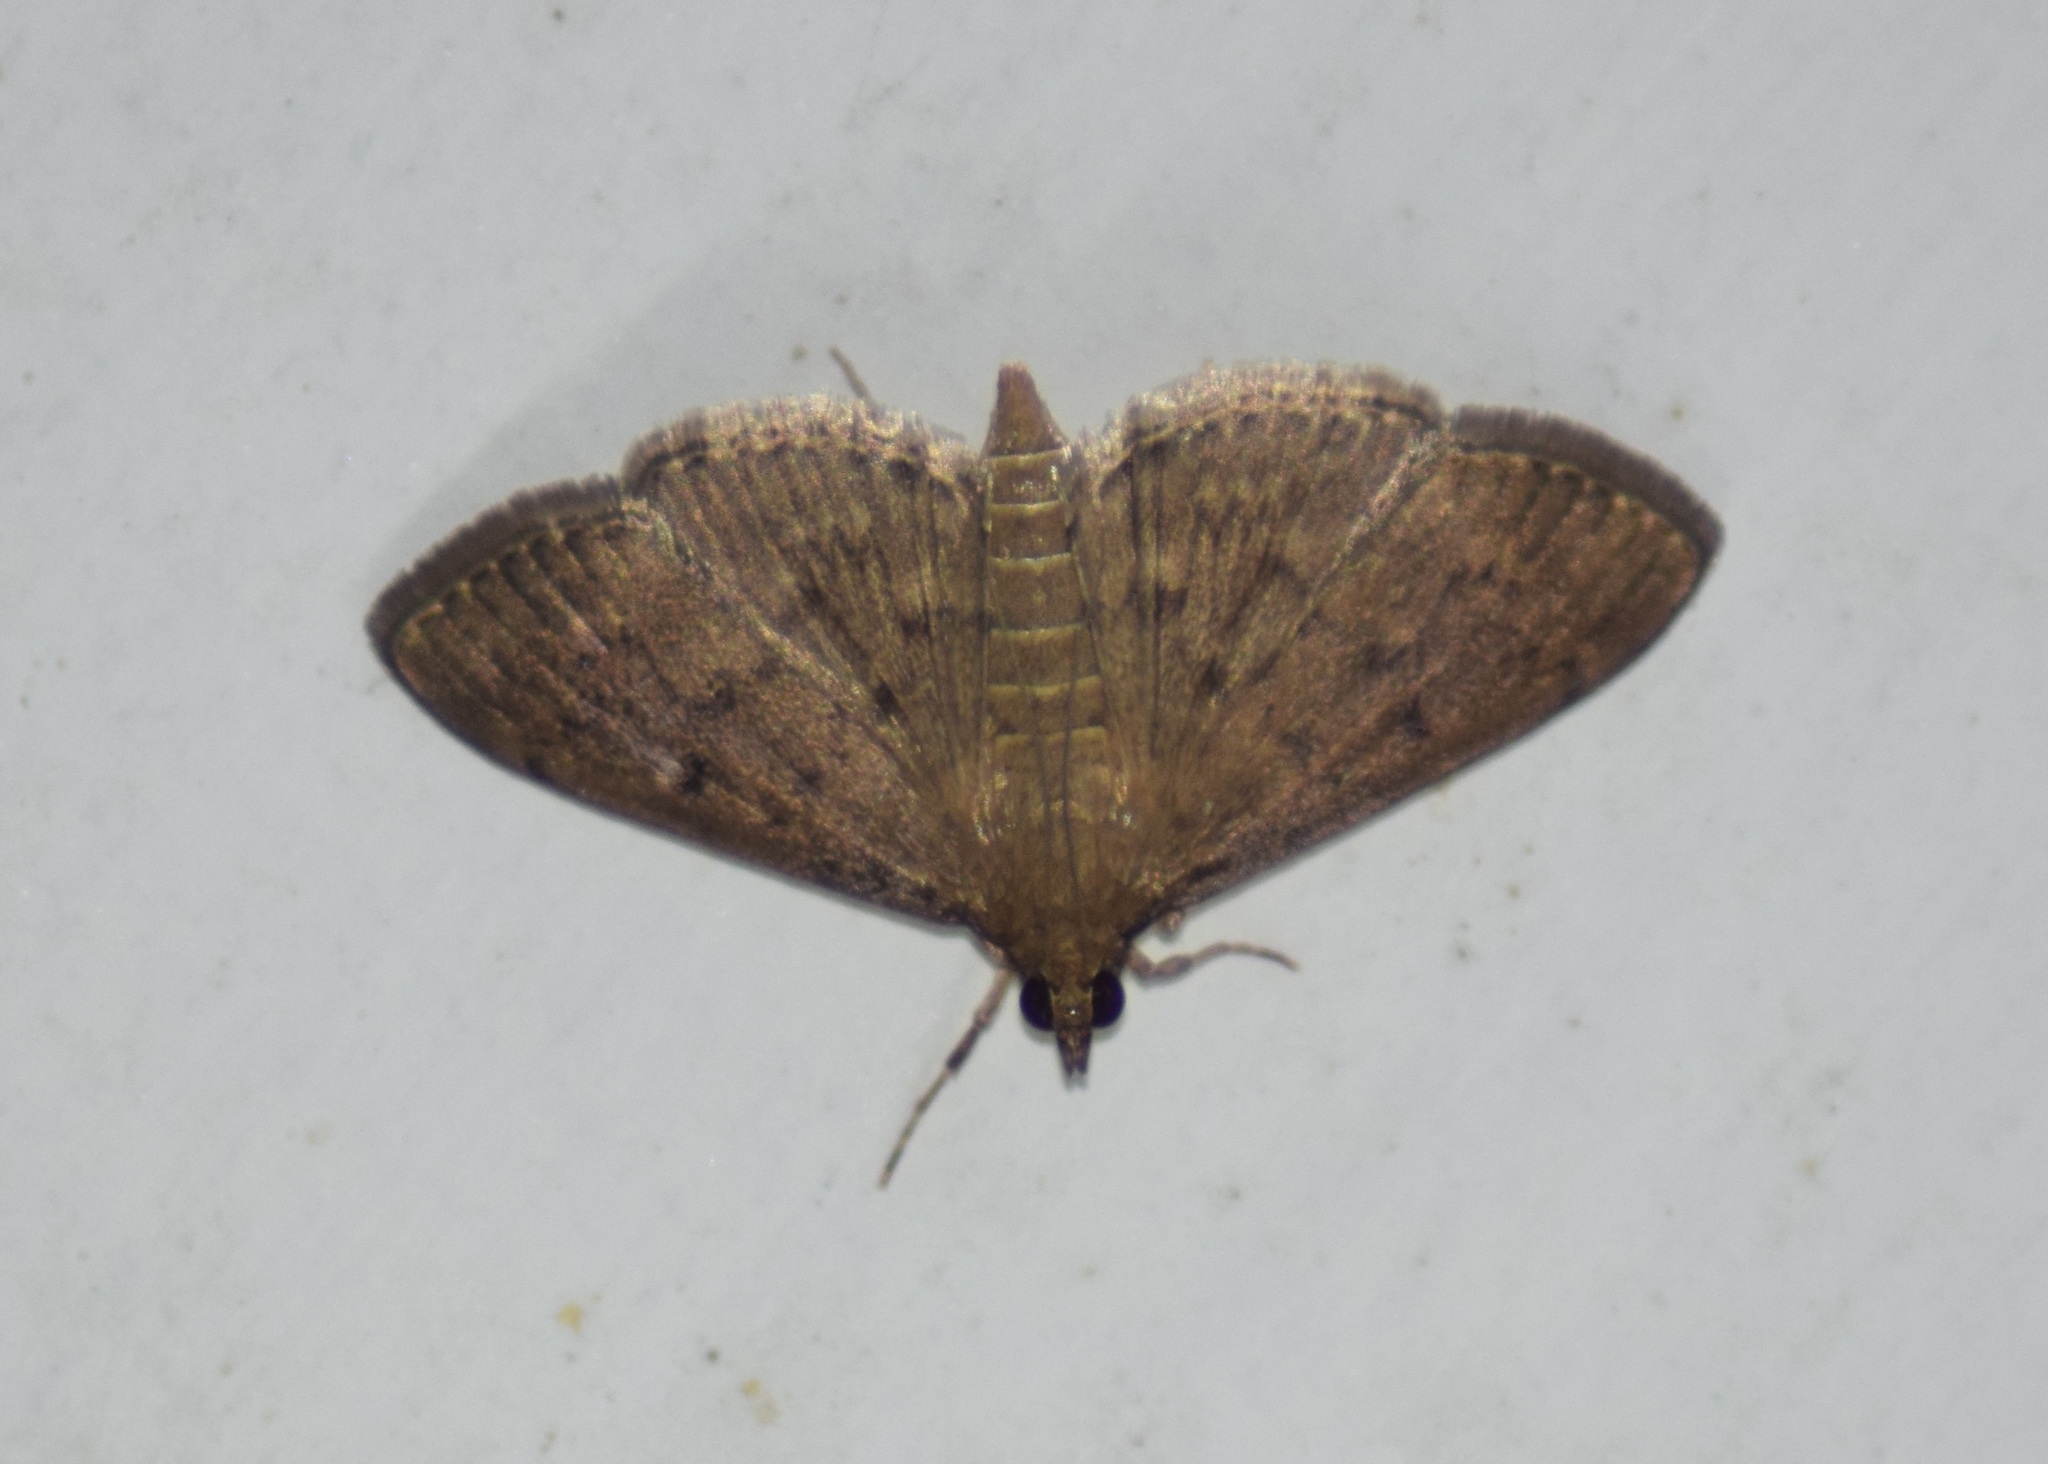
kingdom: Animalia
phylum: Arthropoda
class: Insecta
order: Lepidoptera
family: Crambidae
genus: Herpetogramma
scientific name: Herpetogramma phaeopteralis
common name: Dusky herpetogramma moth
